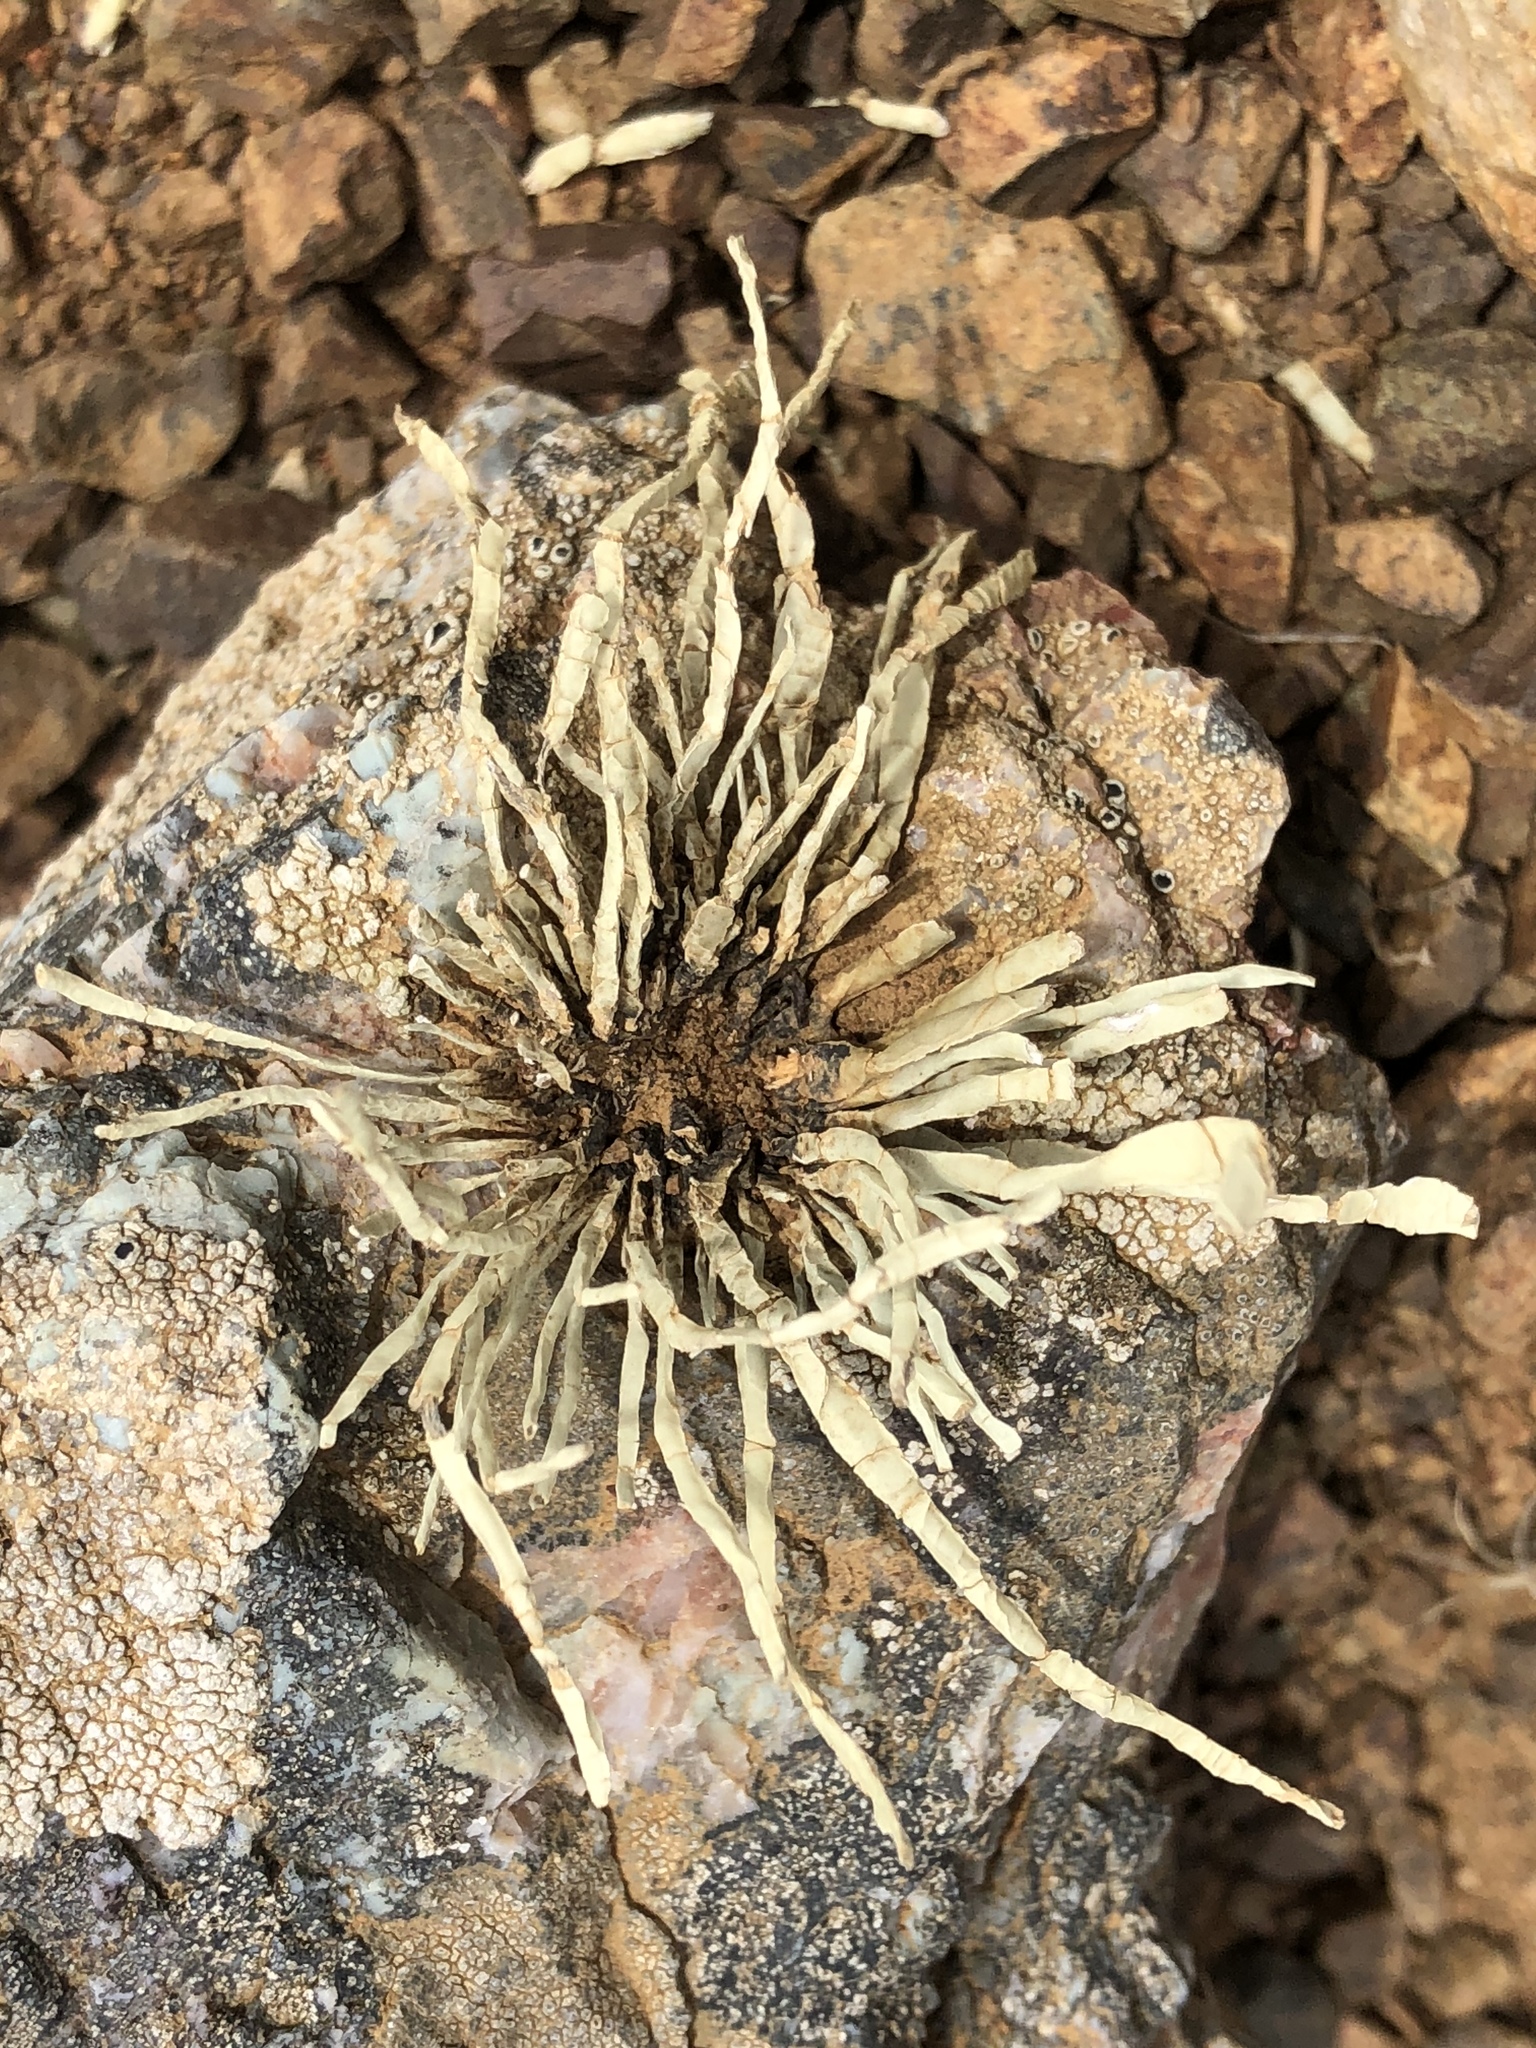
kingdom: Fungi
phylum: Ascomycota
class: Lecanoromycetes
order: Lecanorales
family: Ramalinaceae
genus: Niebla
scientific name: Niebla homalea
